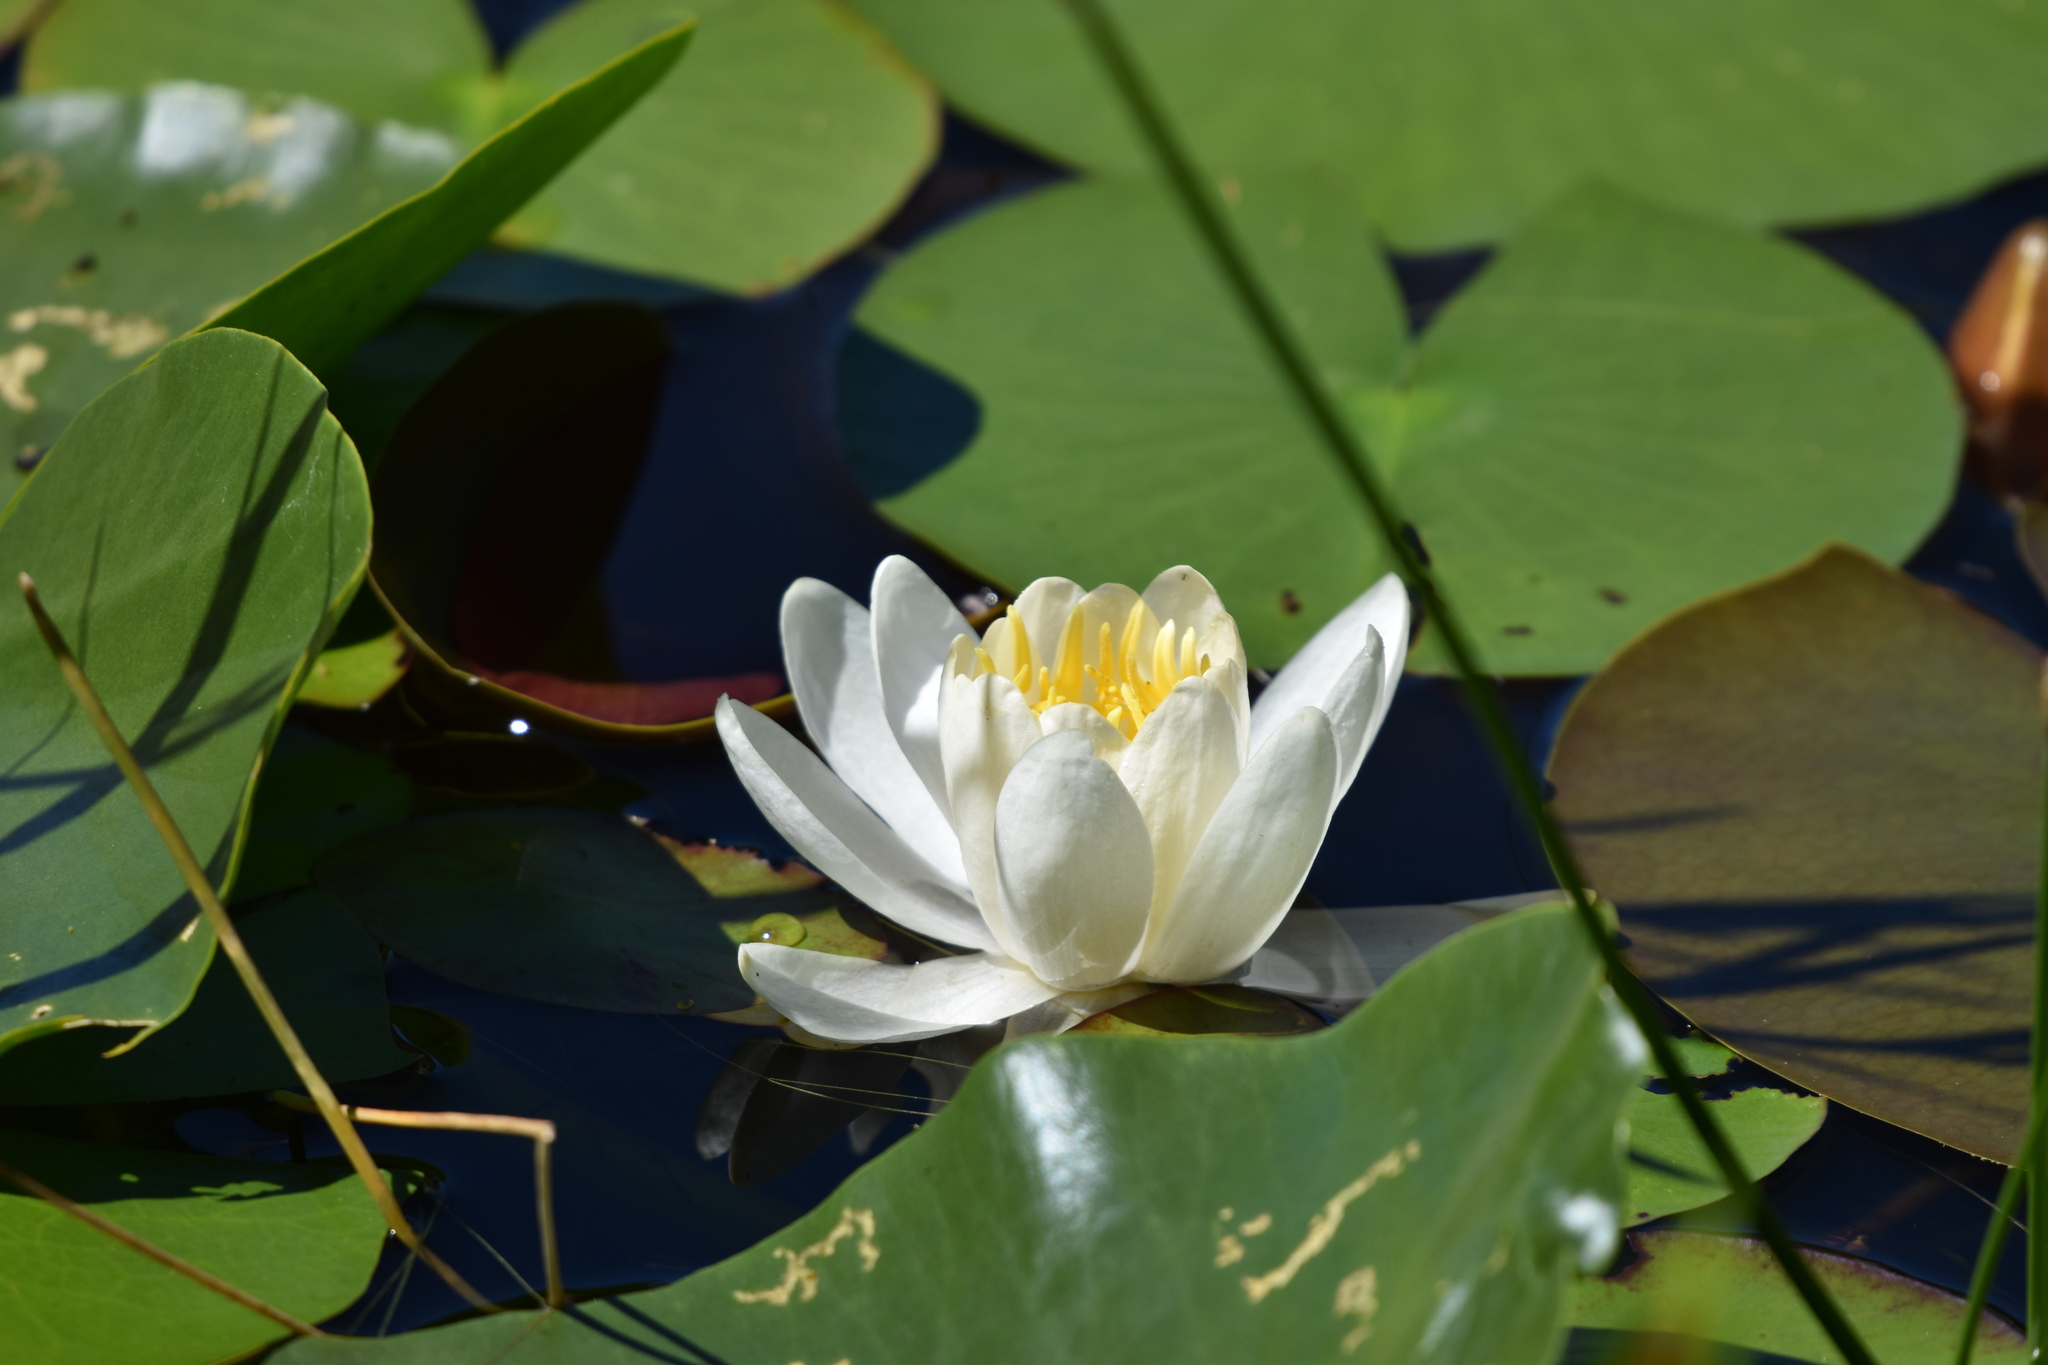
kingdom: Plantae
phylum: Tracheophyta
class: Magnoliopsida
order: Nymphaeales
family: Nymphaeaceae
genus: Nymphaea
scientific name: Nymphaea odorata
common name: Fragrant water-lily
